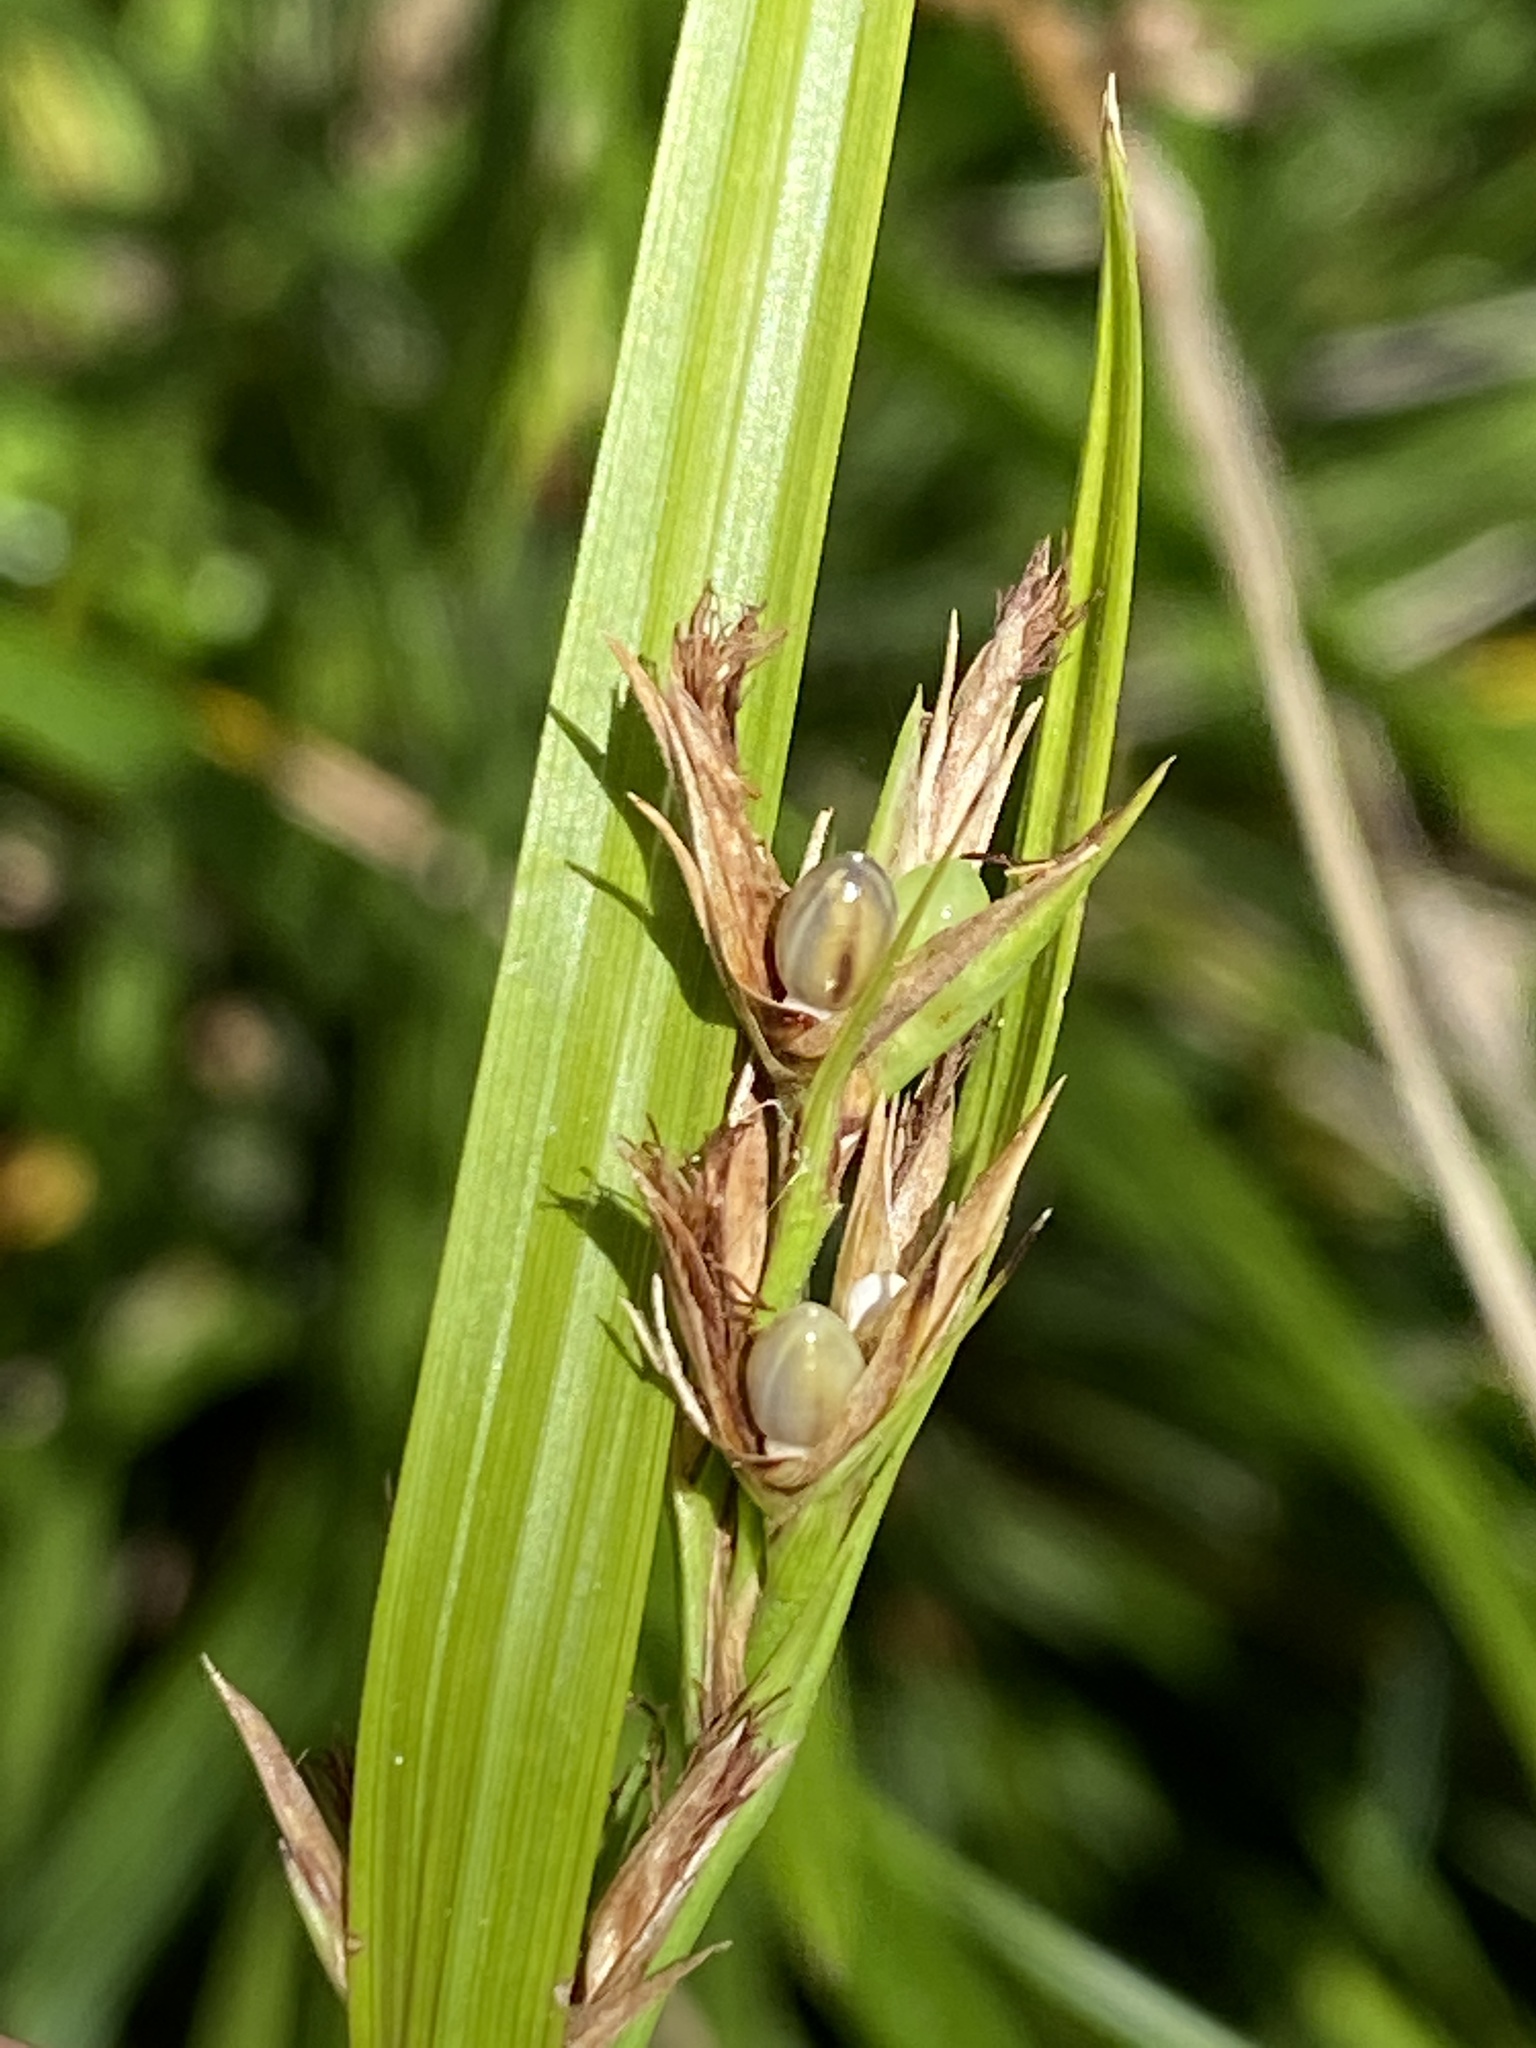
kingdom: Plantae
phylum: Tracheophyta
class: Liliopsida
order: Poales
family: Cyperaceae
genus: Scleria
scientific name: Scleria triglomerata
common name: Whip nutrush
